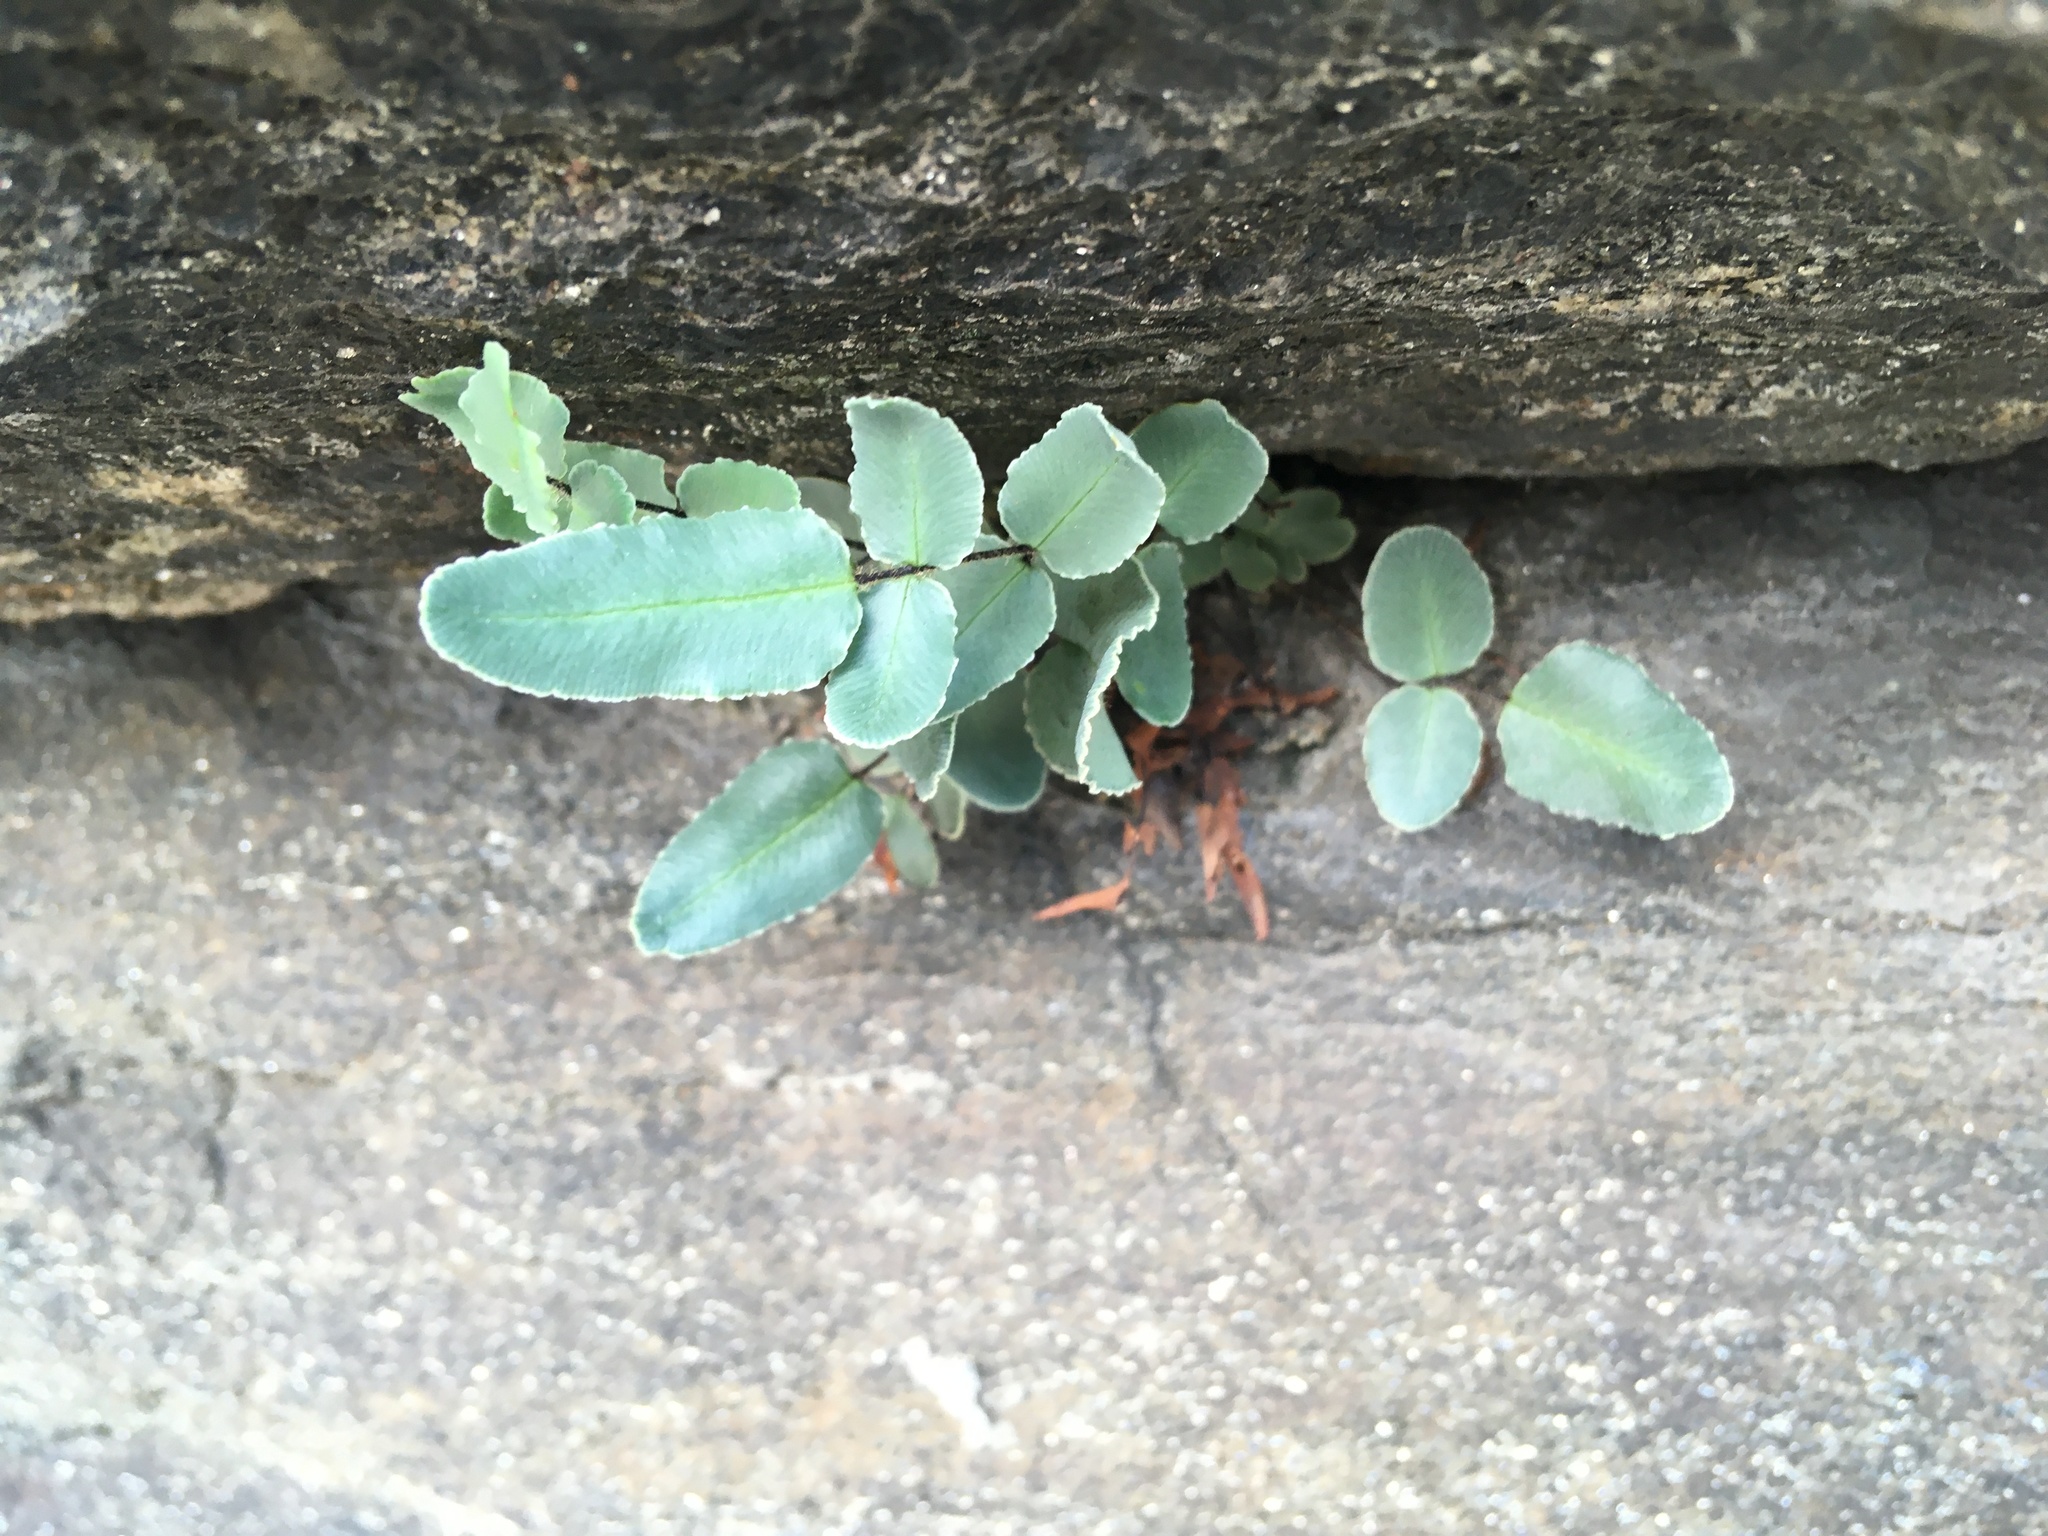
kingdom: Plantae
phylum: Tracheophyta
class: Polypodiopsida
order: Polypodiales
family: Pteridaceae
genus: Pellaea
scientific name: Pellaea atropurpurea
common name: Hairy cliffbrake
